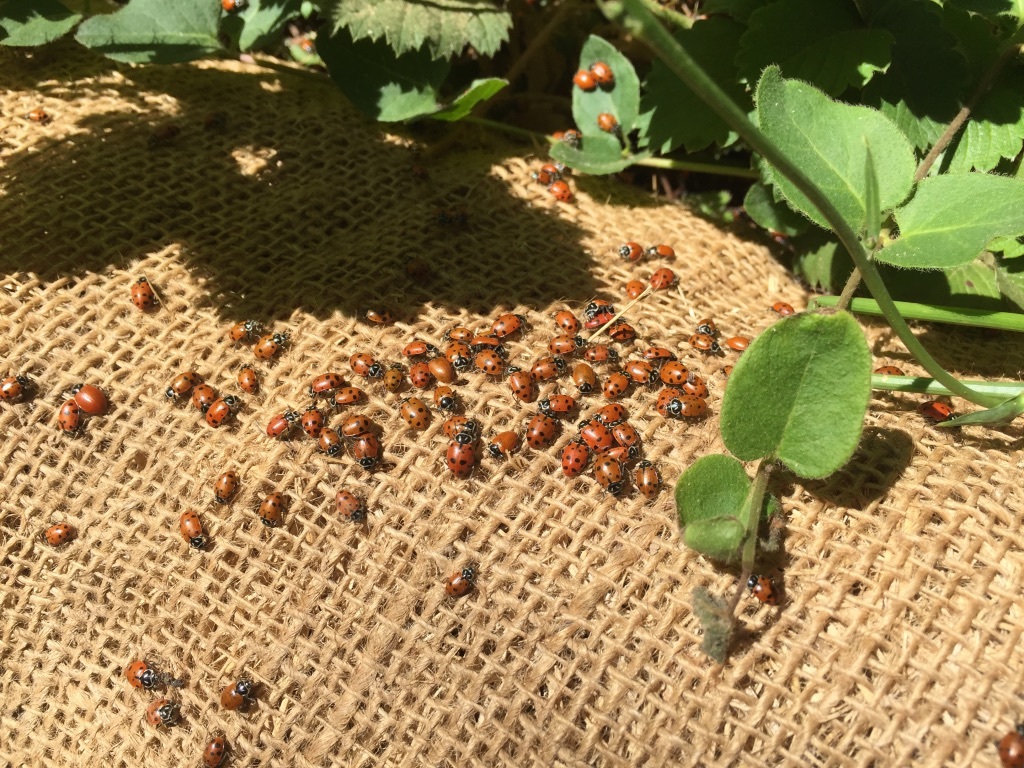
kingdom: Animalia
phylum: Arthropoda
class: Insecta
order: Coleoptera
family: Coccinellidae
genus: Hippodamia
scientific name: Hippodamia convergens
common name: Convergent lady beetle
